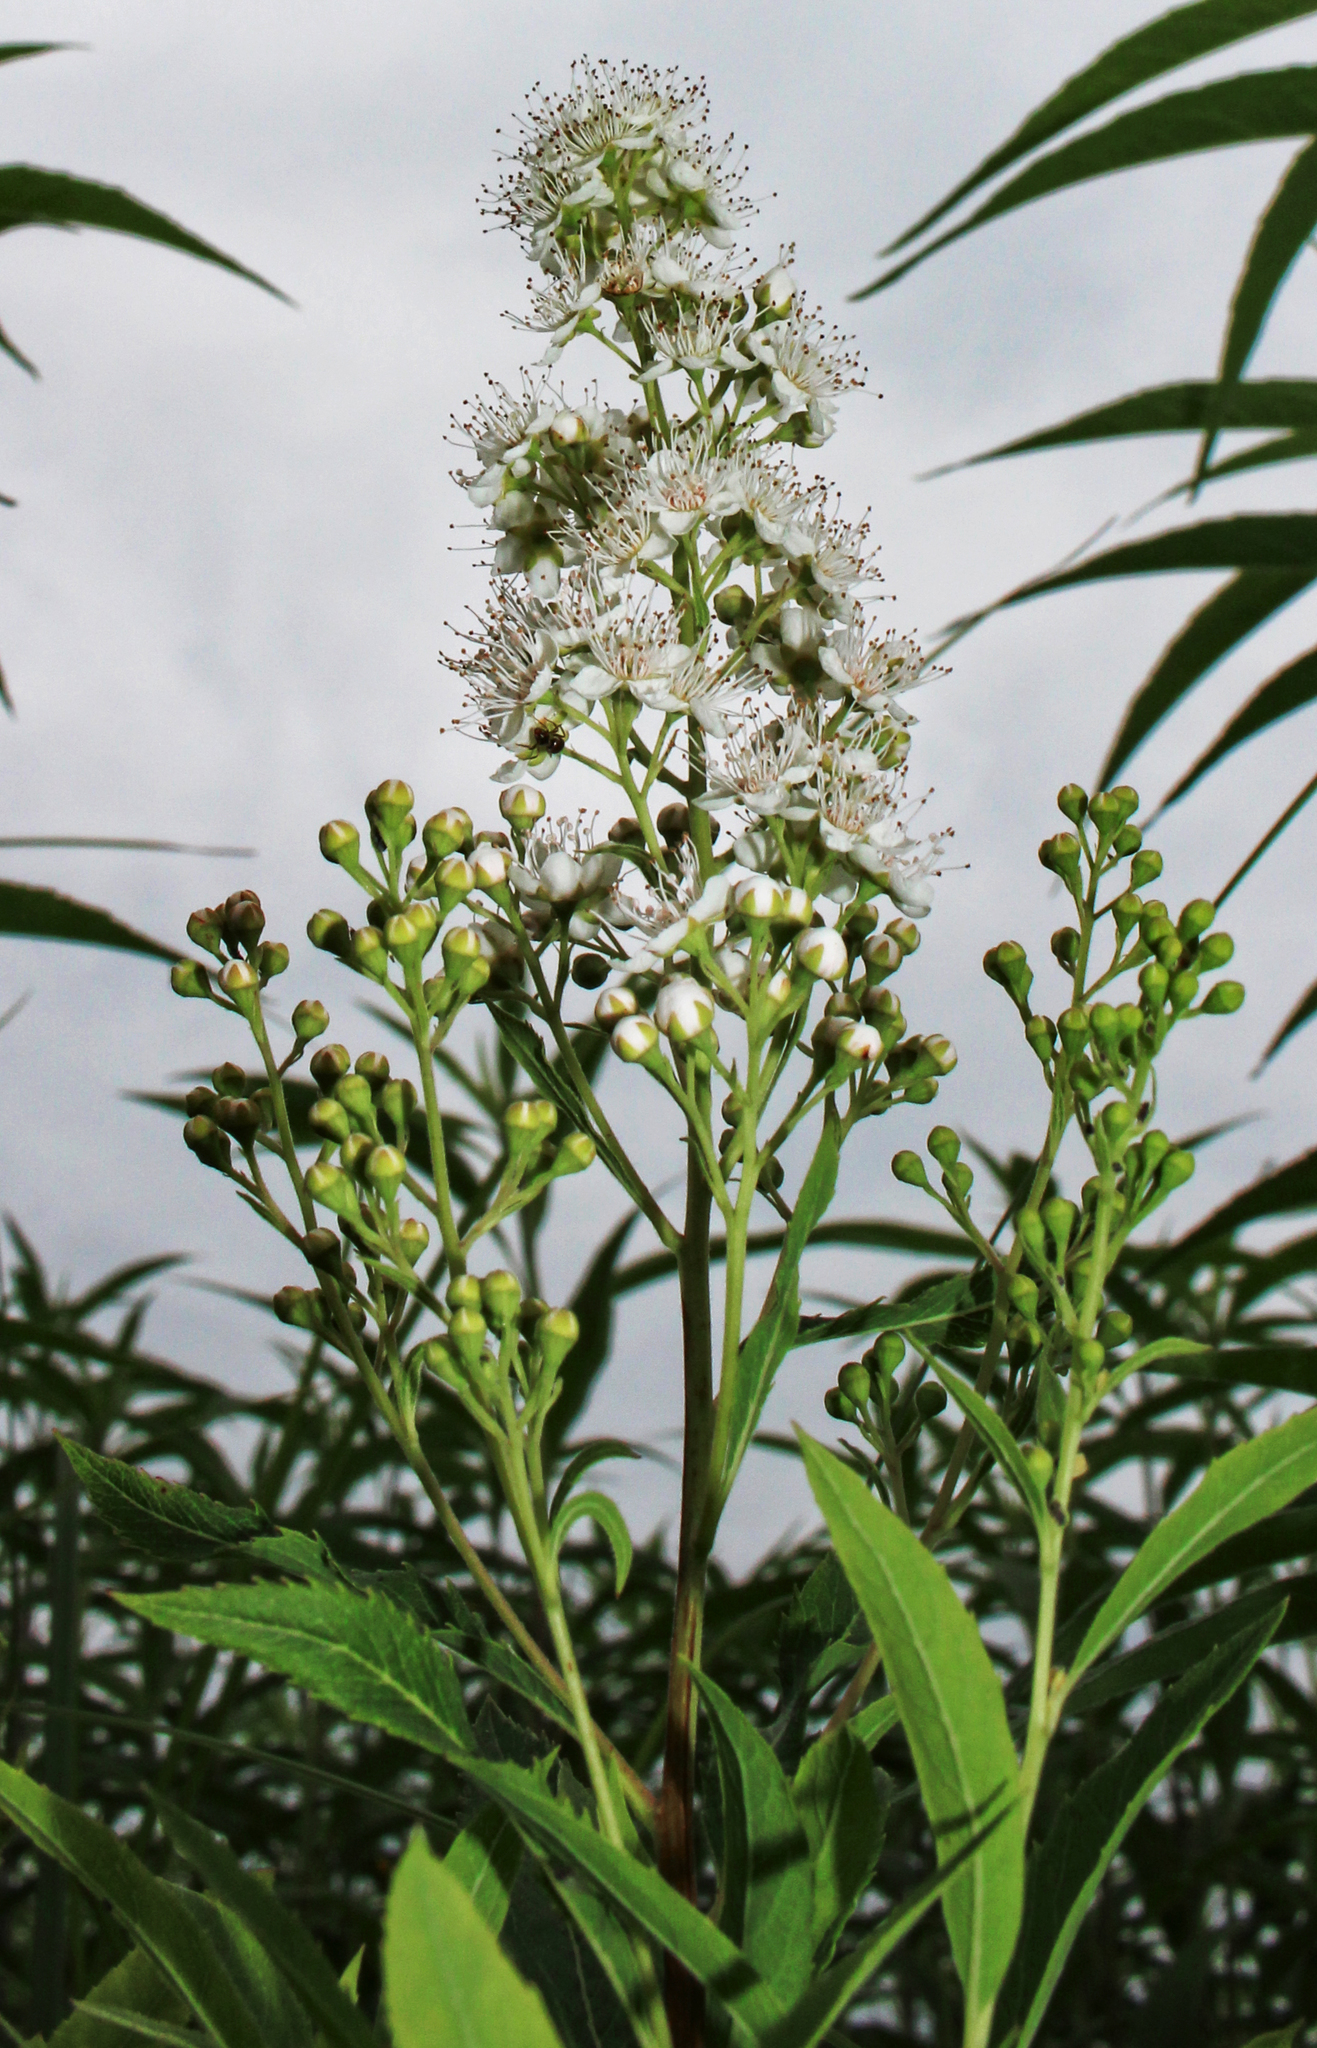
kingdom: Plantae
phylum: Tracheophyta
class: Magnoliopsida
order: Rosales
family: Rosaceae
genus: Spiraea
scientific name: Spiraea alba
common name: Pale bridewort
